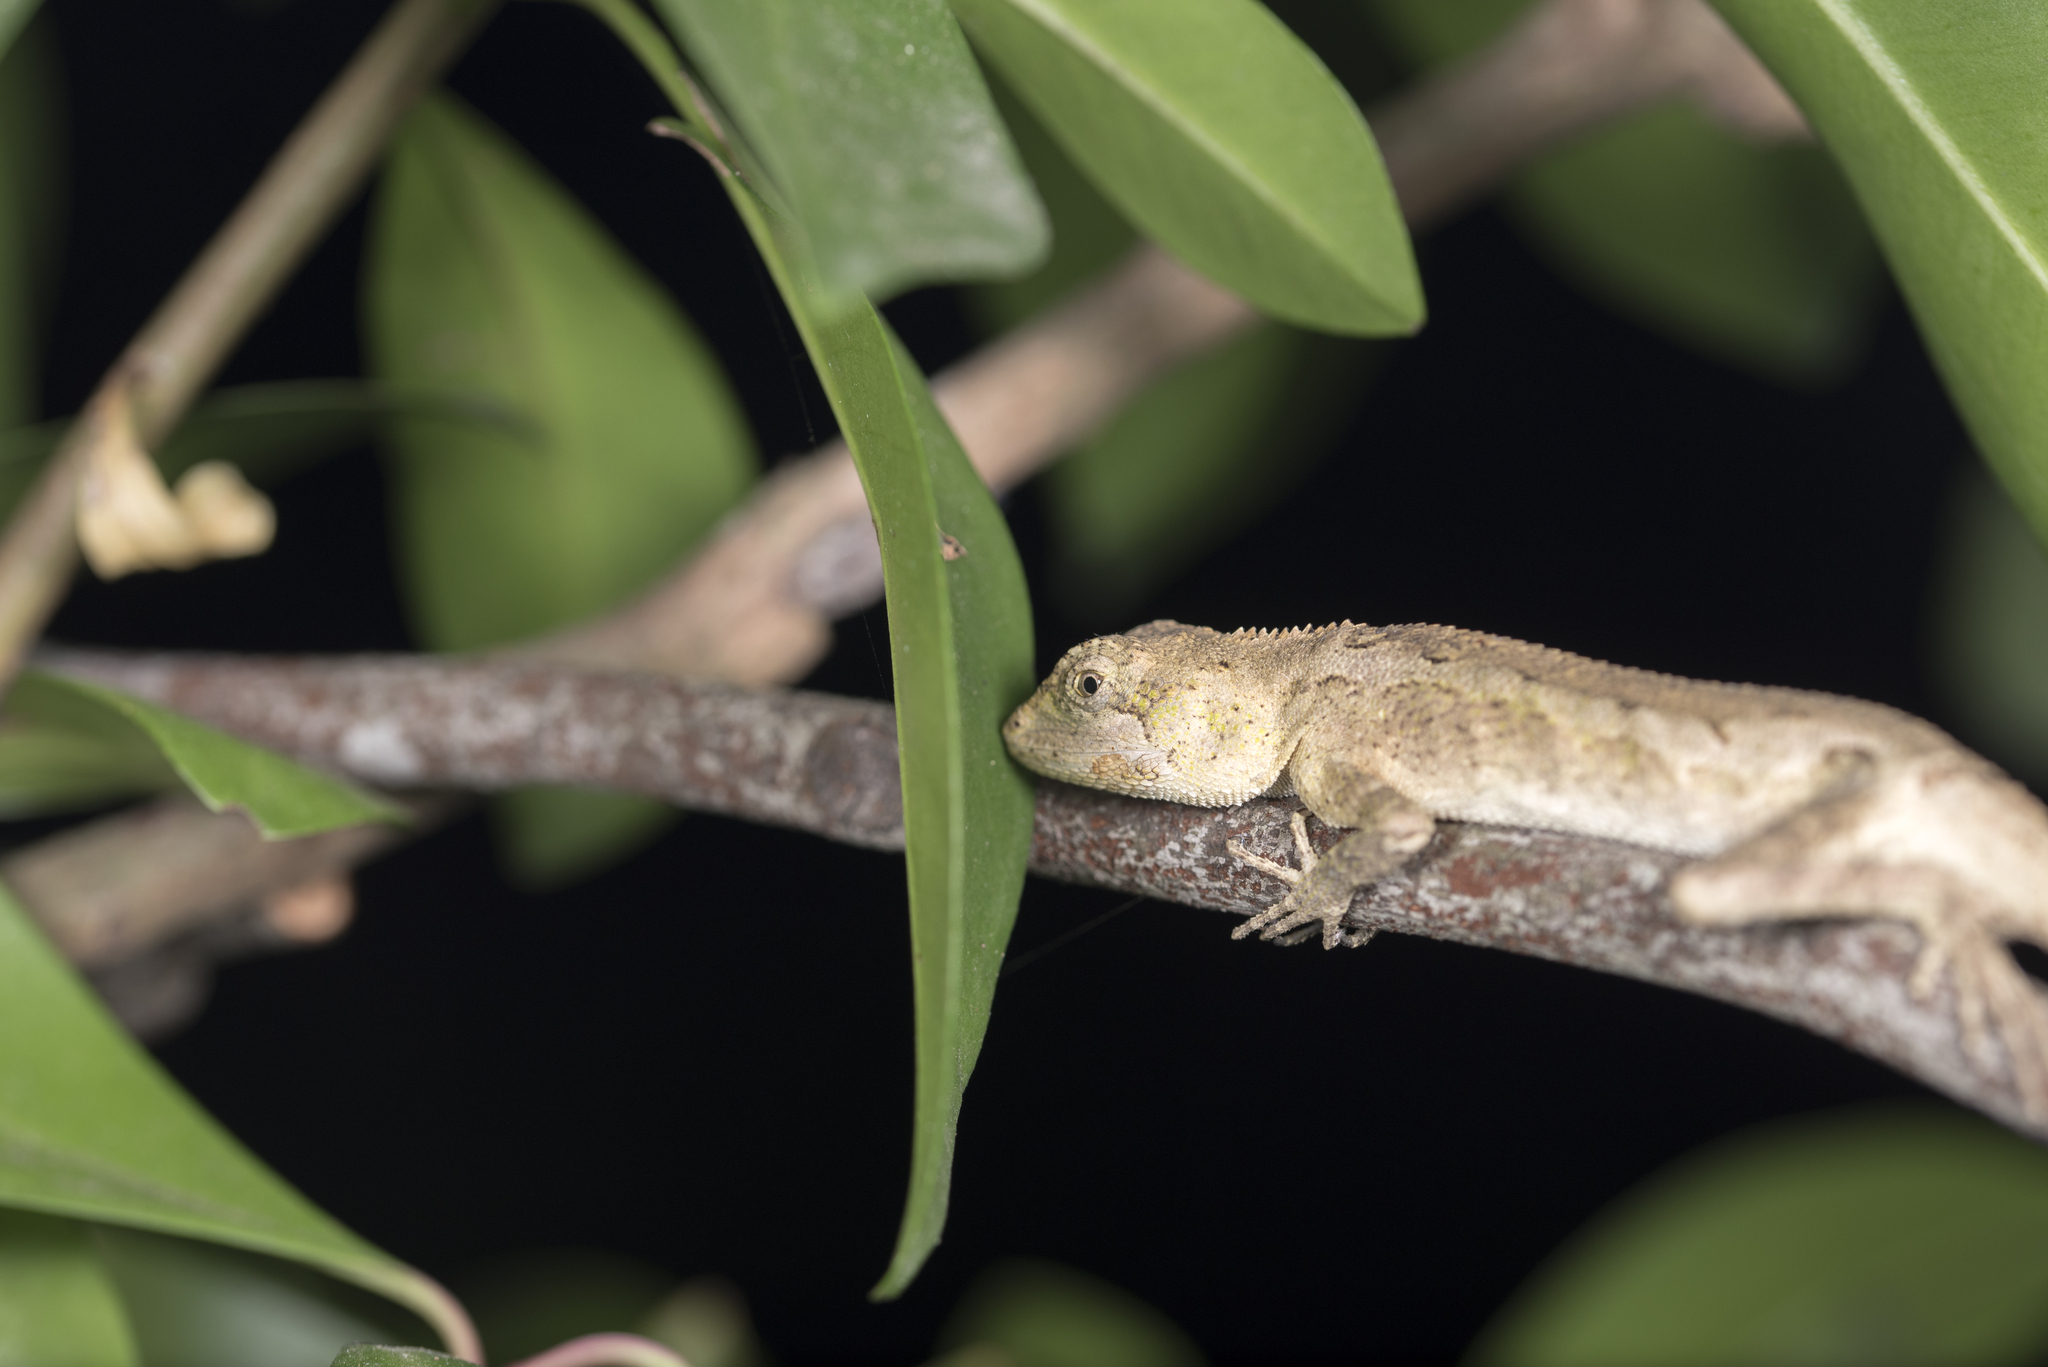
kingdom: Animalia
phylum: Chordata
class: Squamata
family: Agamidae
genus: Diploderma
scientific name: Diploderma swinhonis
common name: Taiwan japalure
